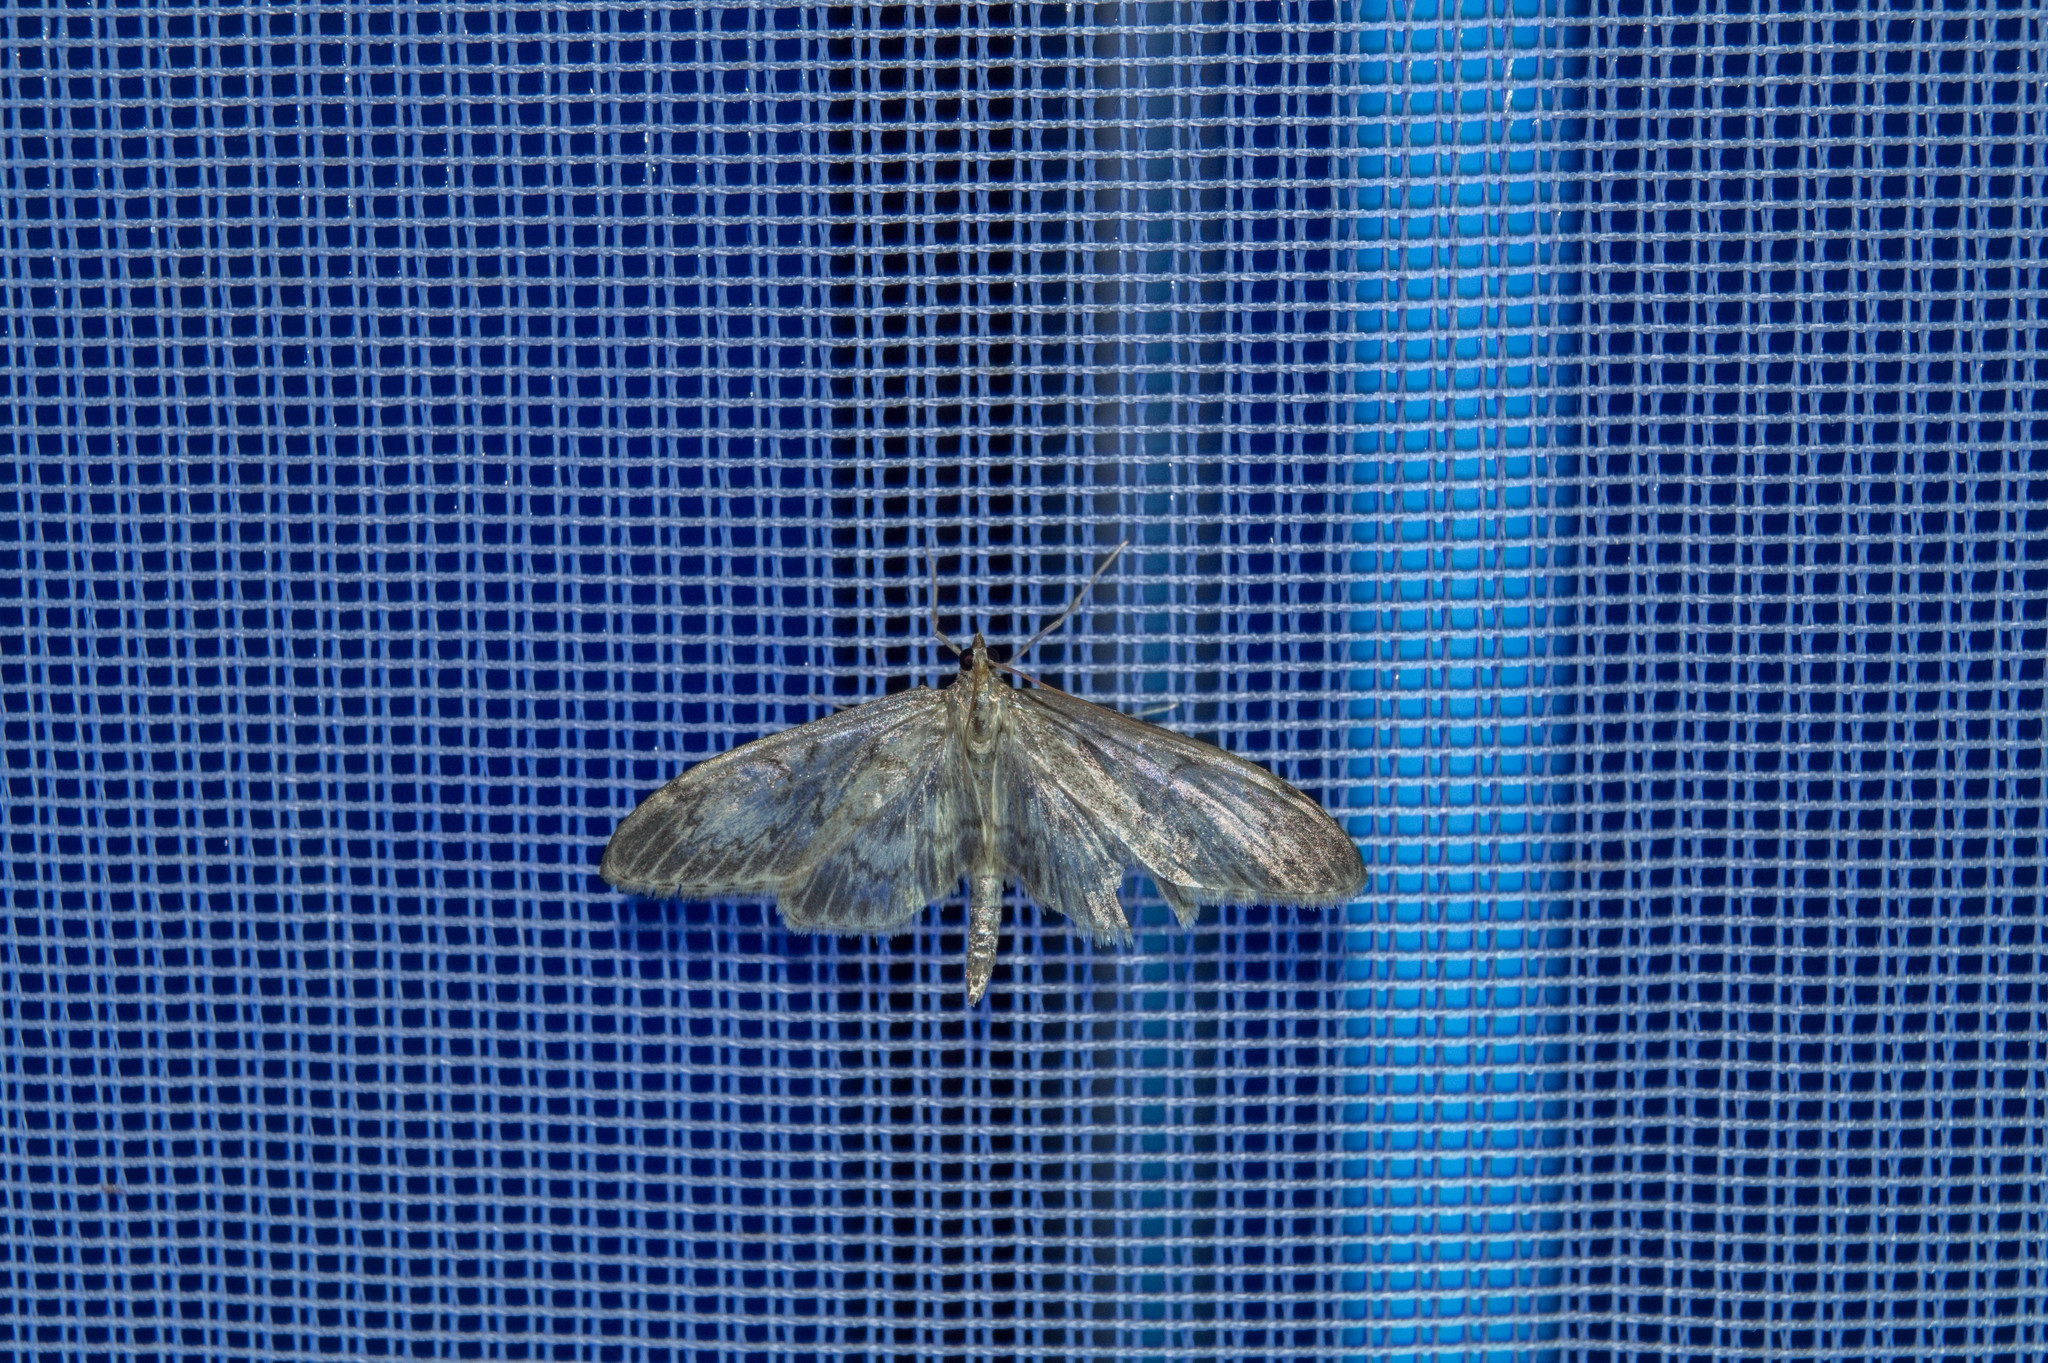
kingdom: Animalia
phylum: Arthropoda
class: Insecta
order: Lepidoptera
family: Crambidae
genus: Anania
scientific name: Anania lancealis
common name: Long-winged pearl
